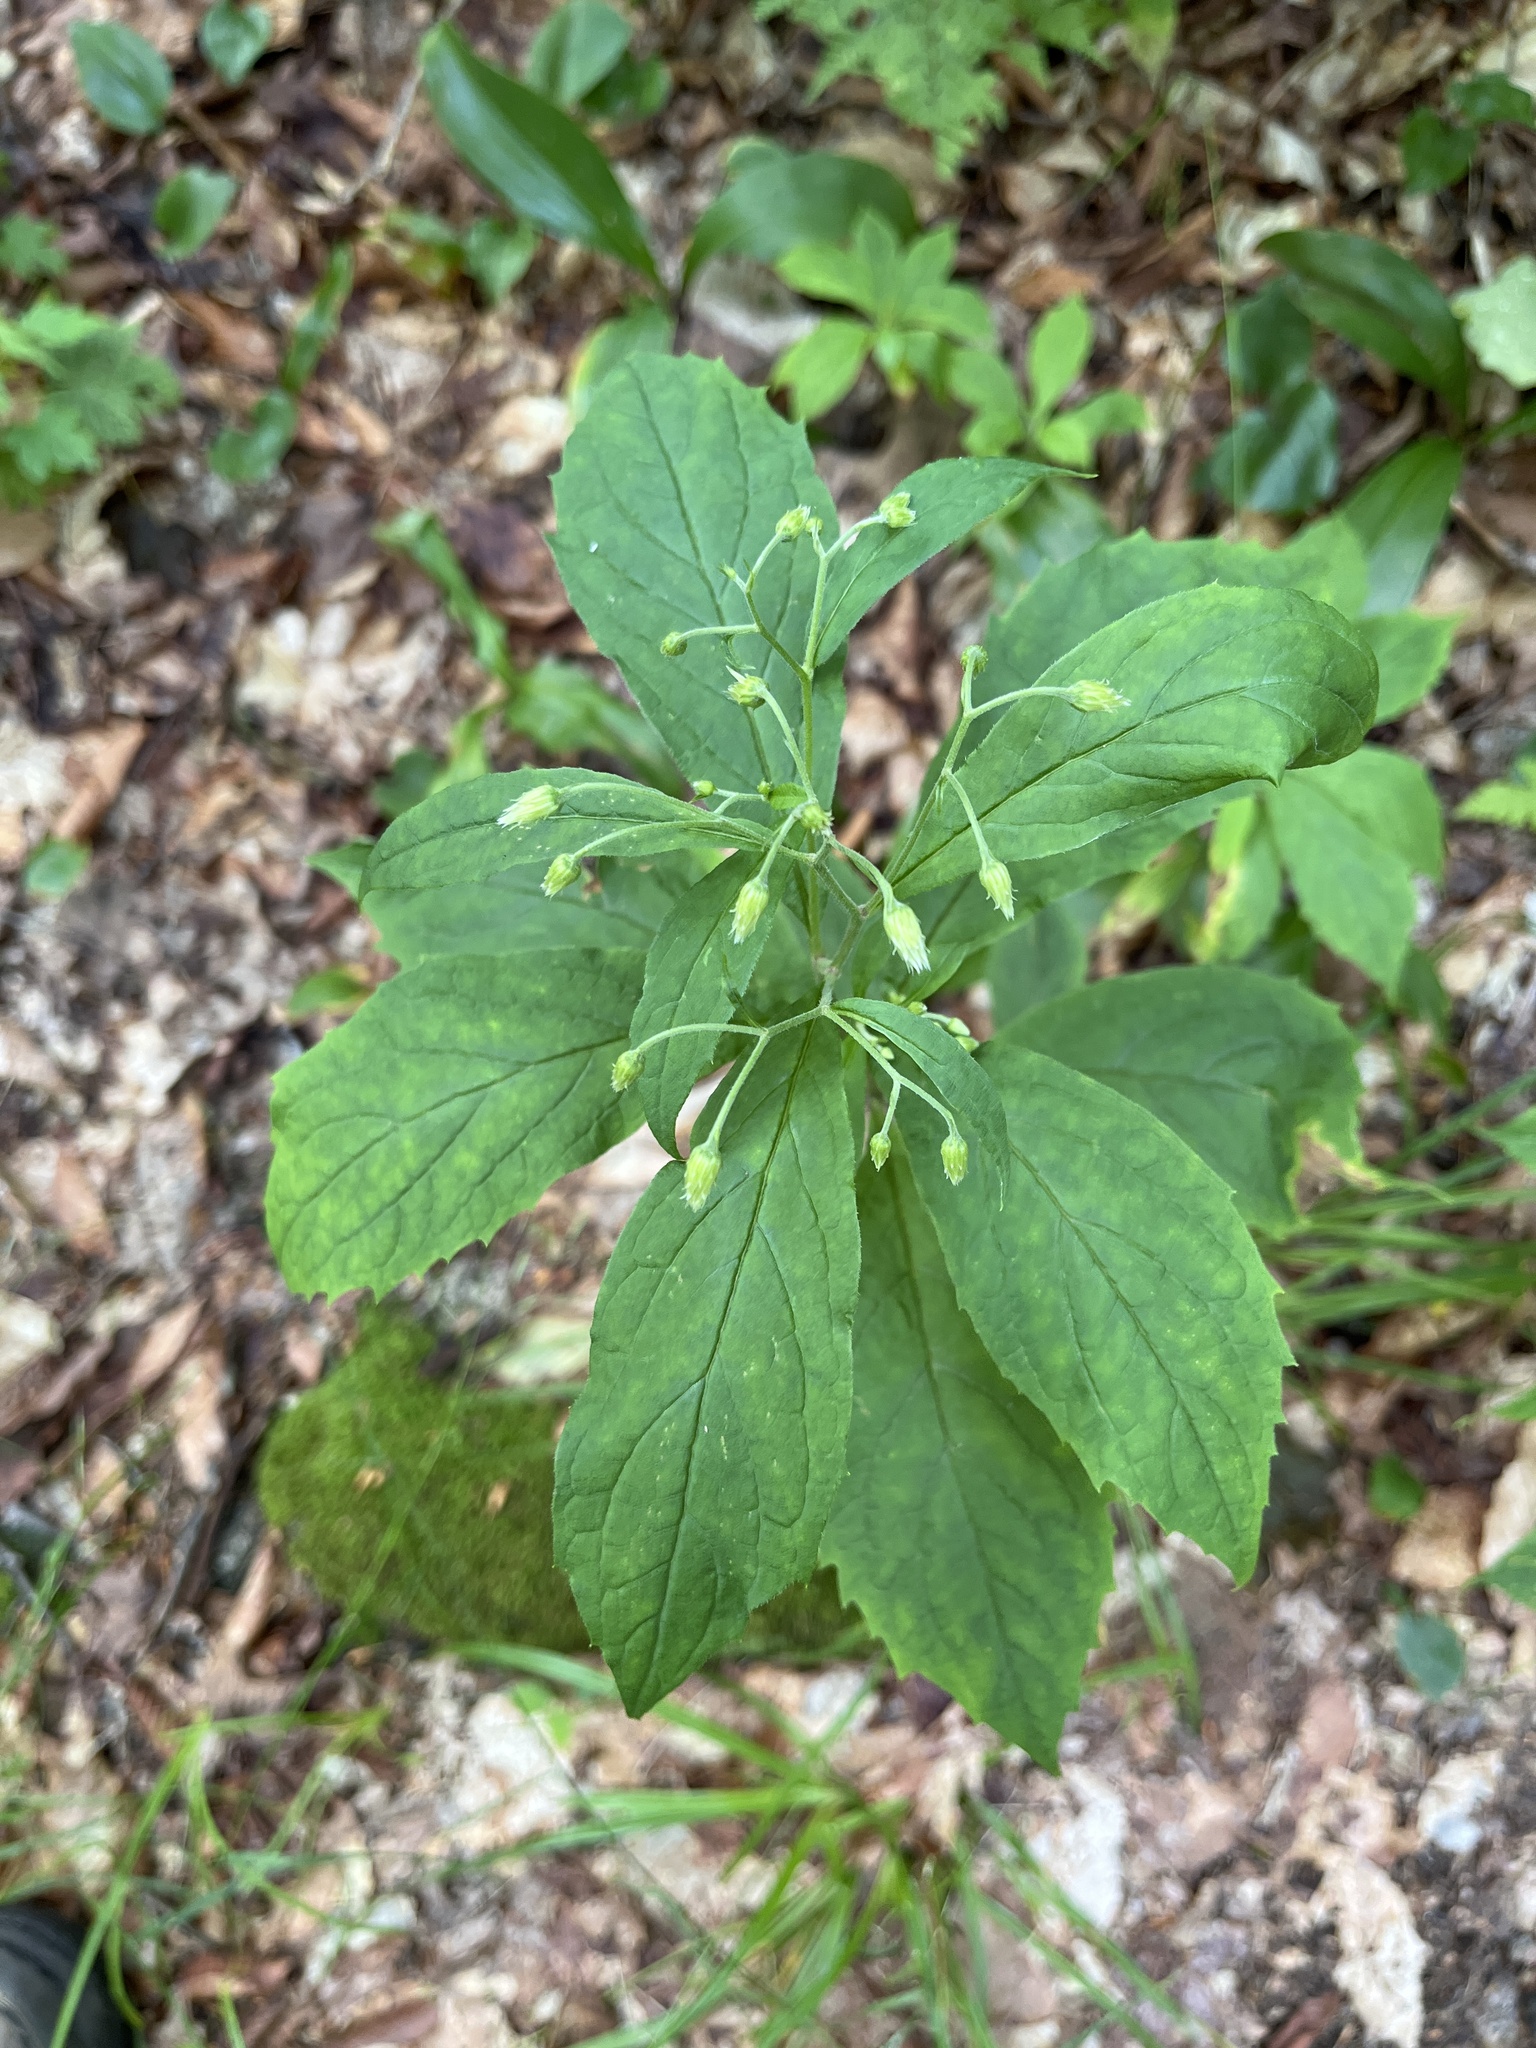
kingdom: Plantae
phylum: Tracheophyta
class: Magnoliopsida
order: Asterales
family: Asteraceae
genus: Oclemena
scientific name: Oclemena acuminata
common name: Mountain aster
